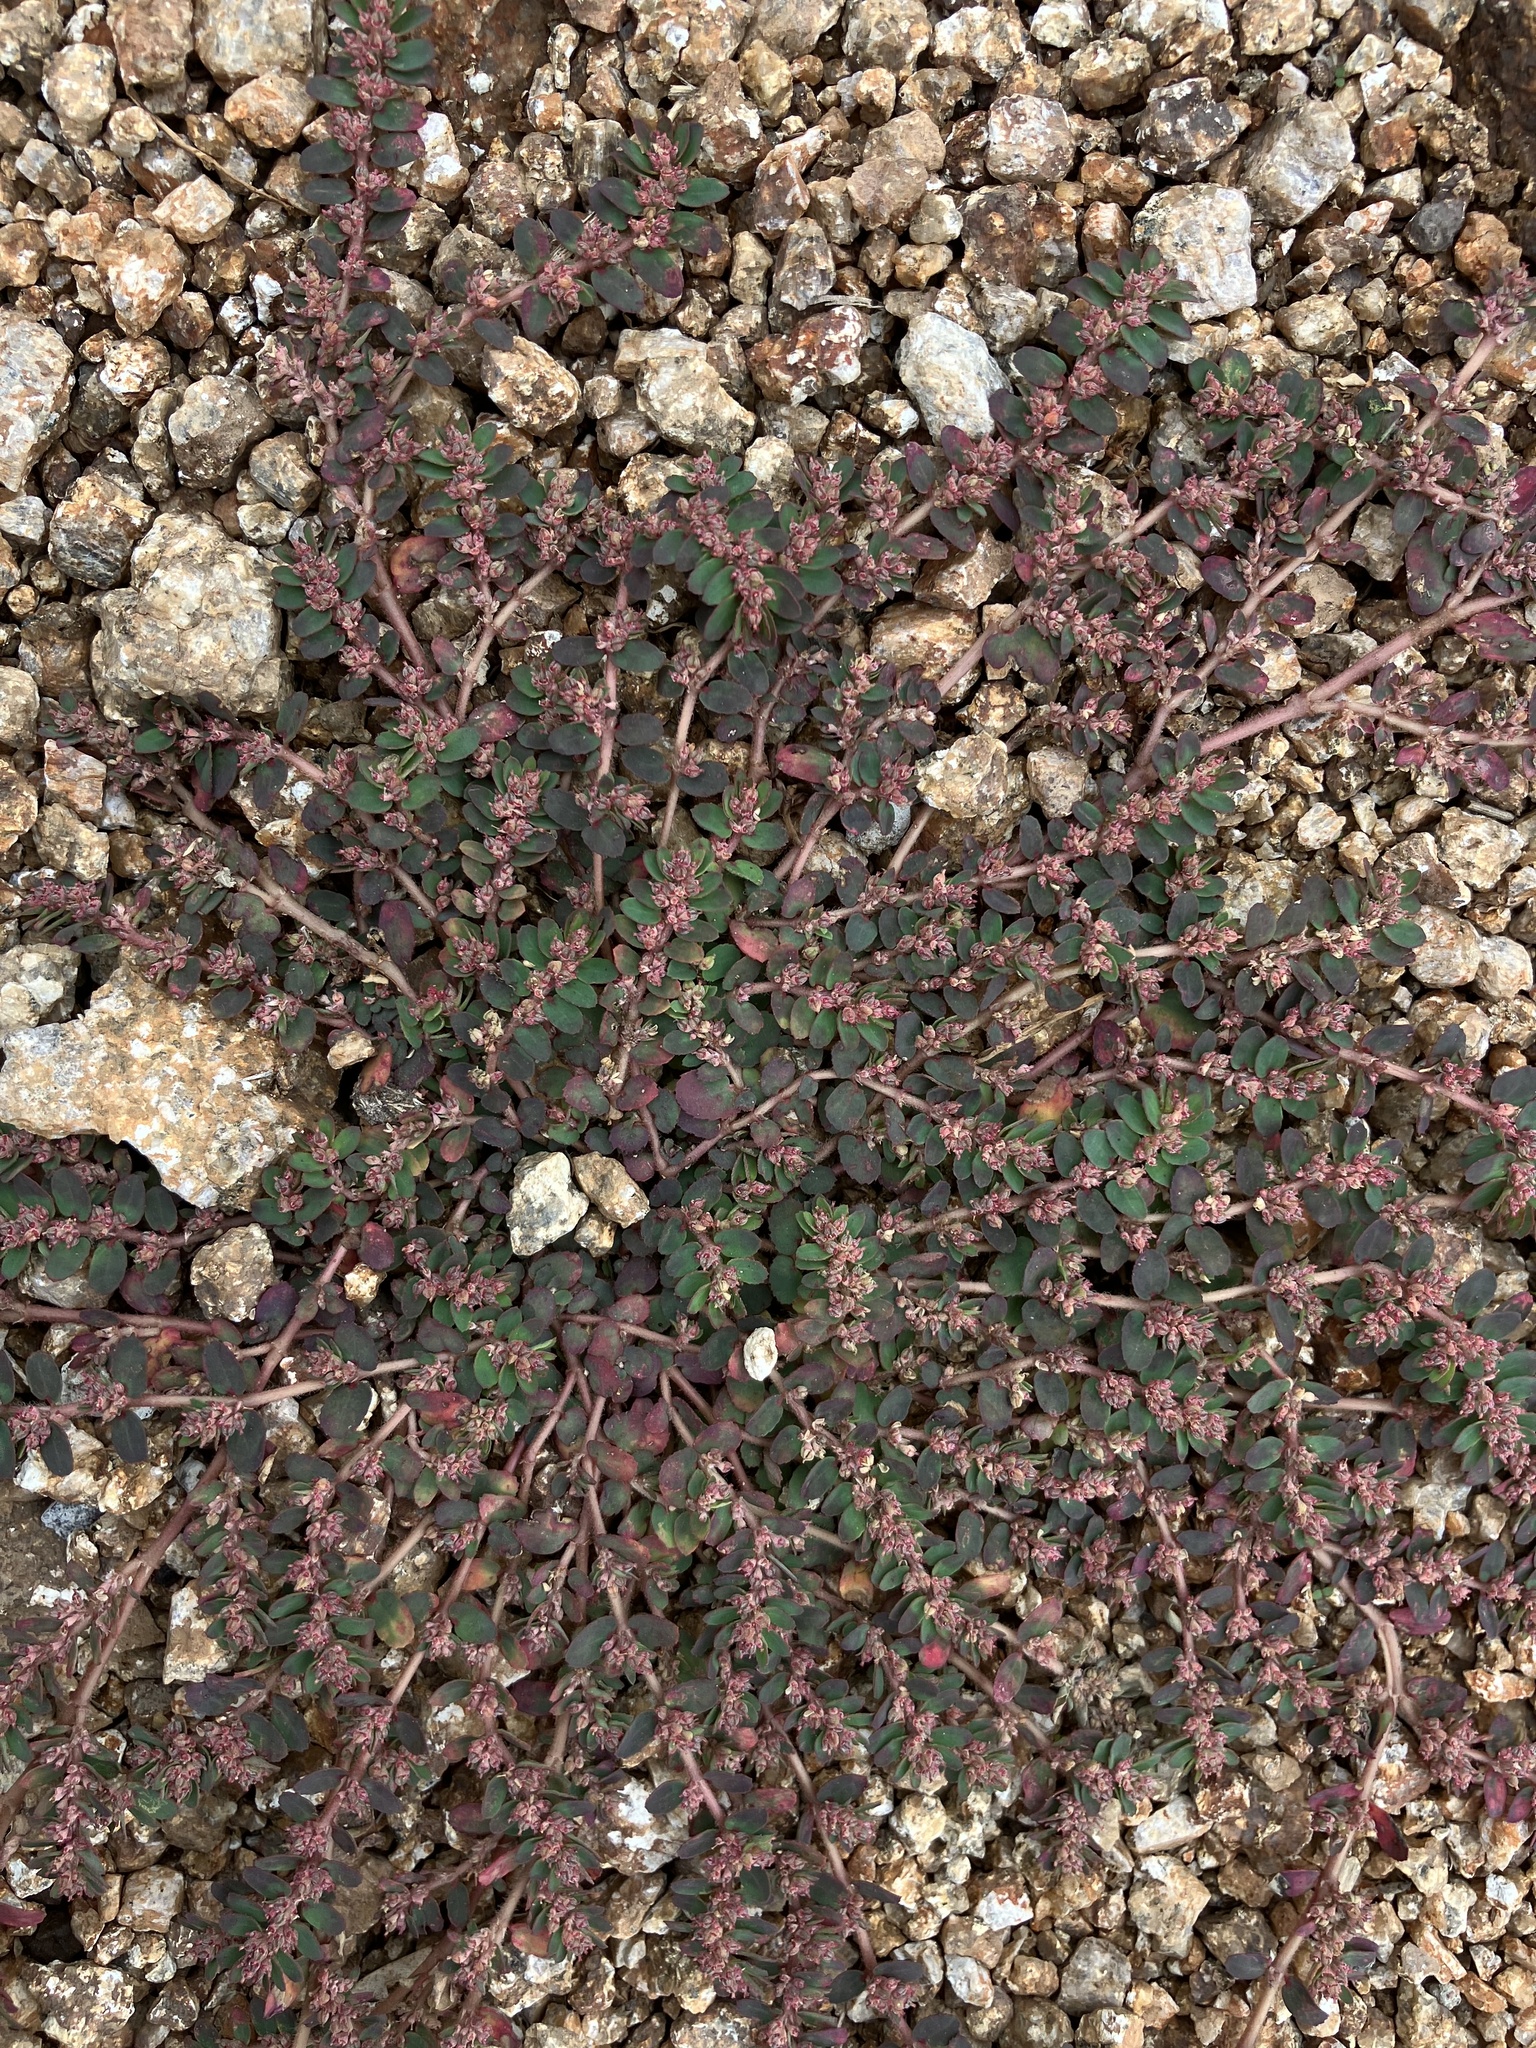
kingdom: Plantae
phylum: Tracheophyta
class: Magnoliopsida
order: Malpighiales
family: Euphorbiaceae
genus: Euphorbia
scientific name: Euphorbia thymifolia
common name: Gulf sandmat
